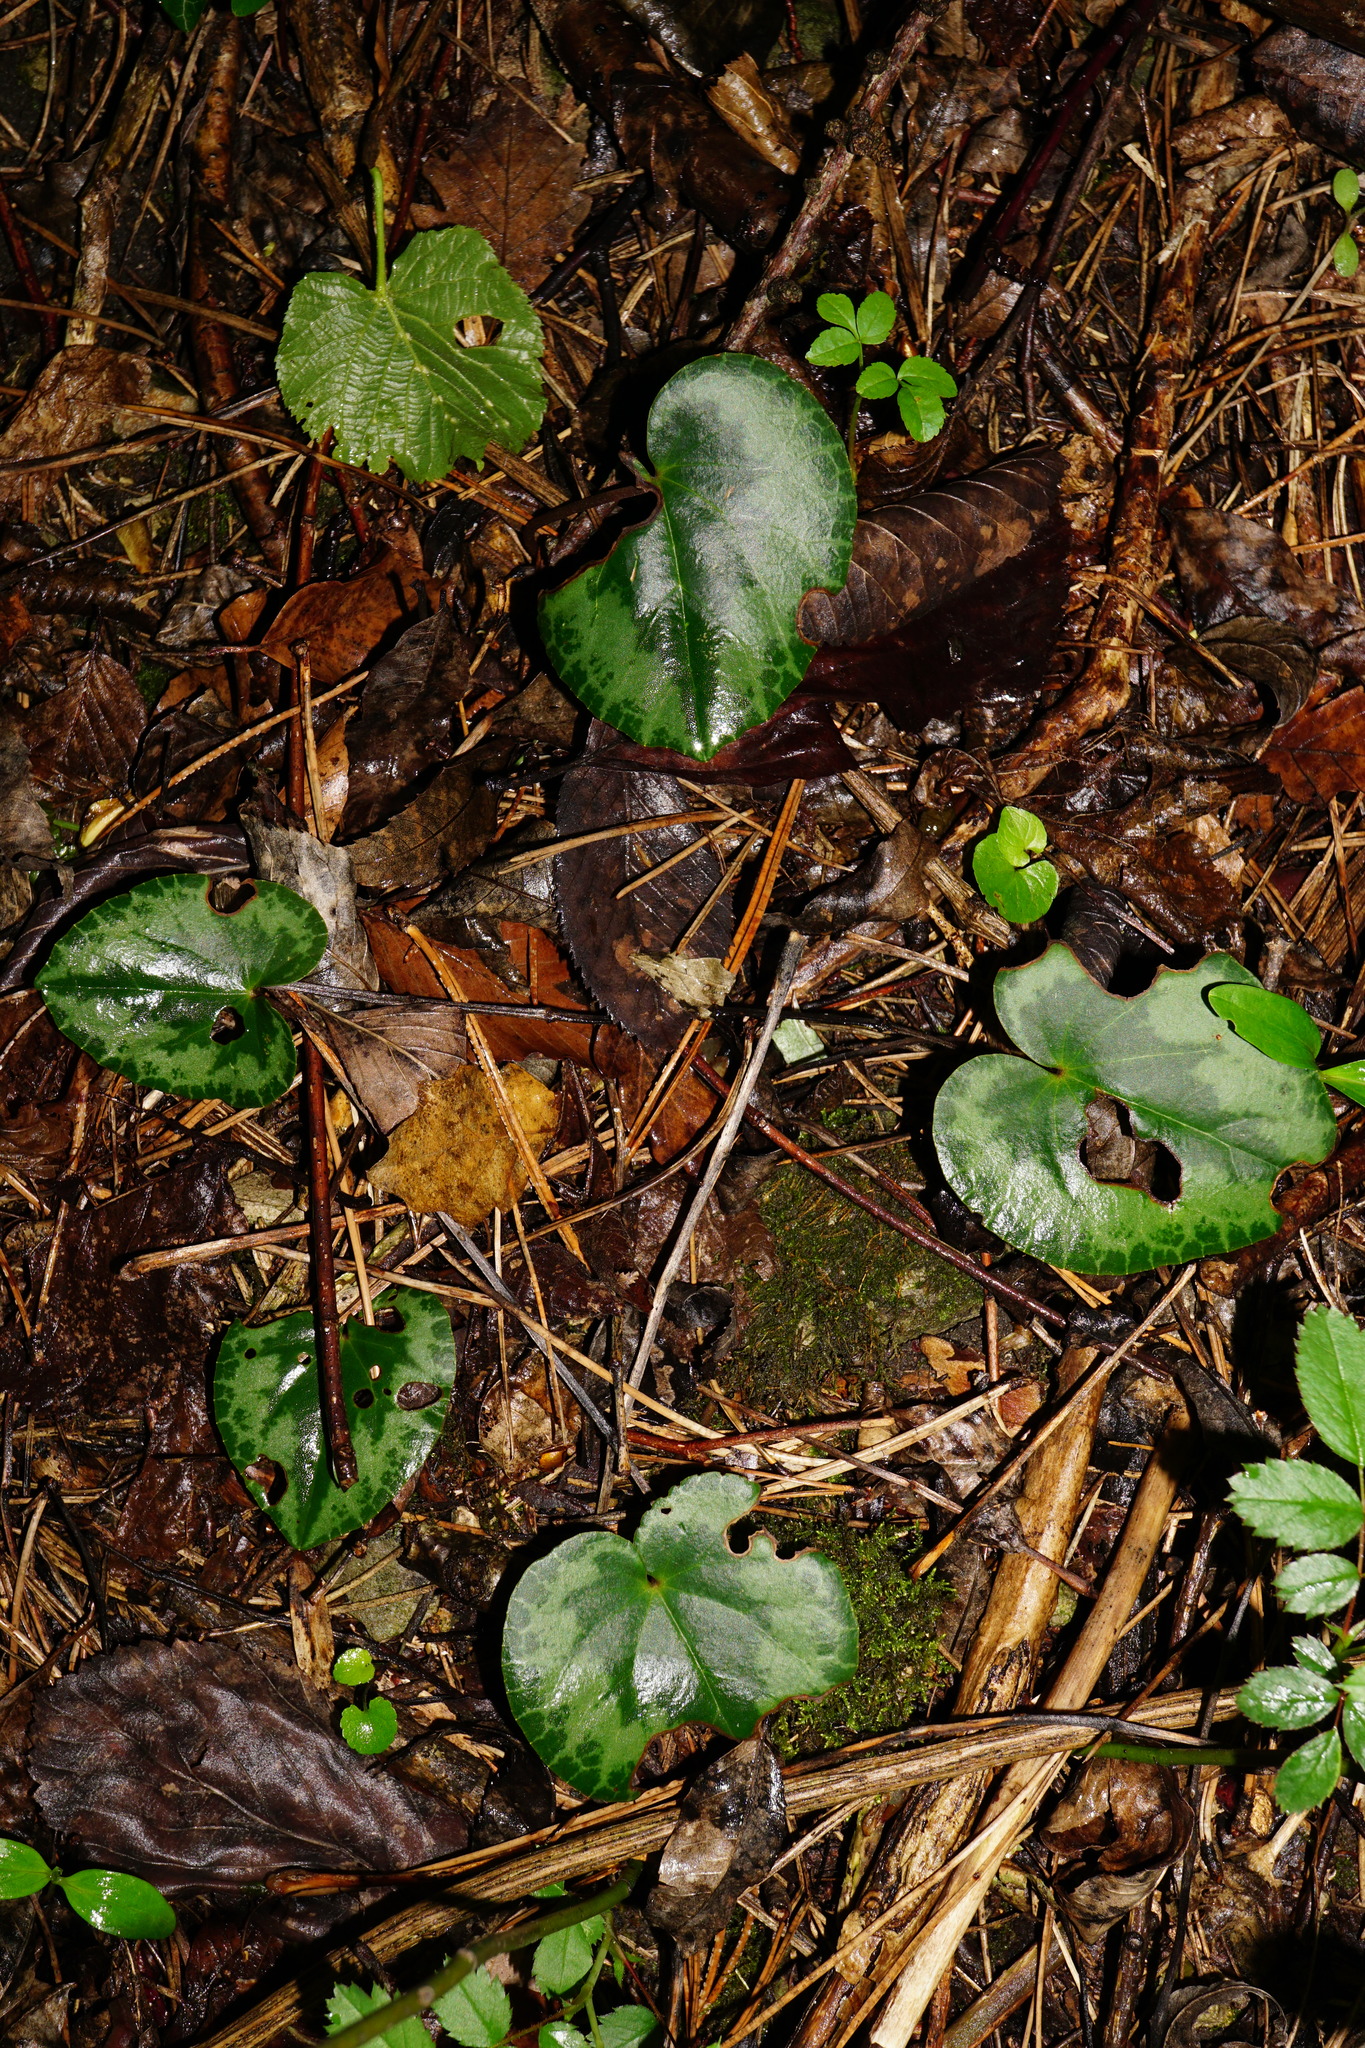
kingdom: Plantae
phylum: Tracheophyta
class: Magnoliopsida
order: Ericales
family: Primulaceae
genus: Cyclamen
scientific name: Cyclamen purpurascens
